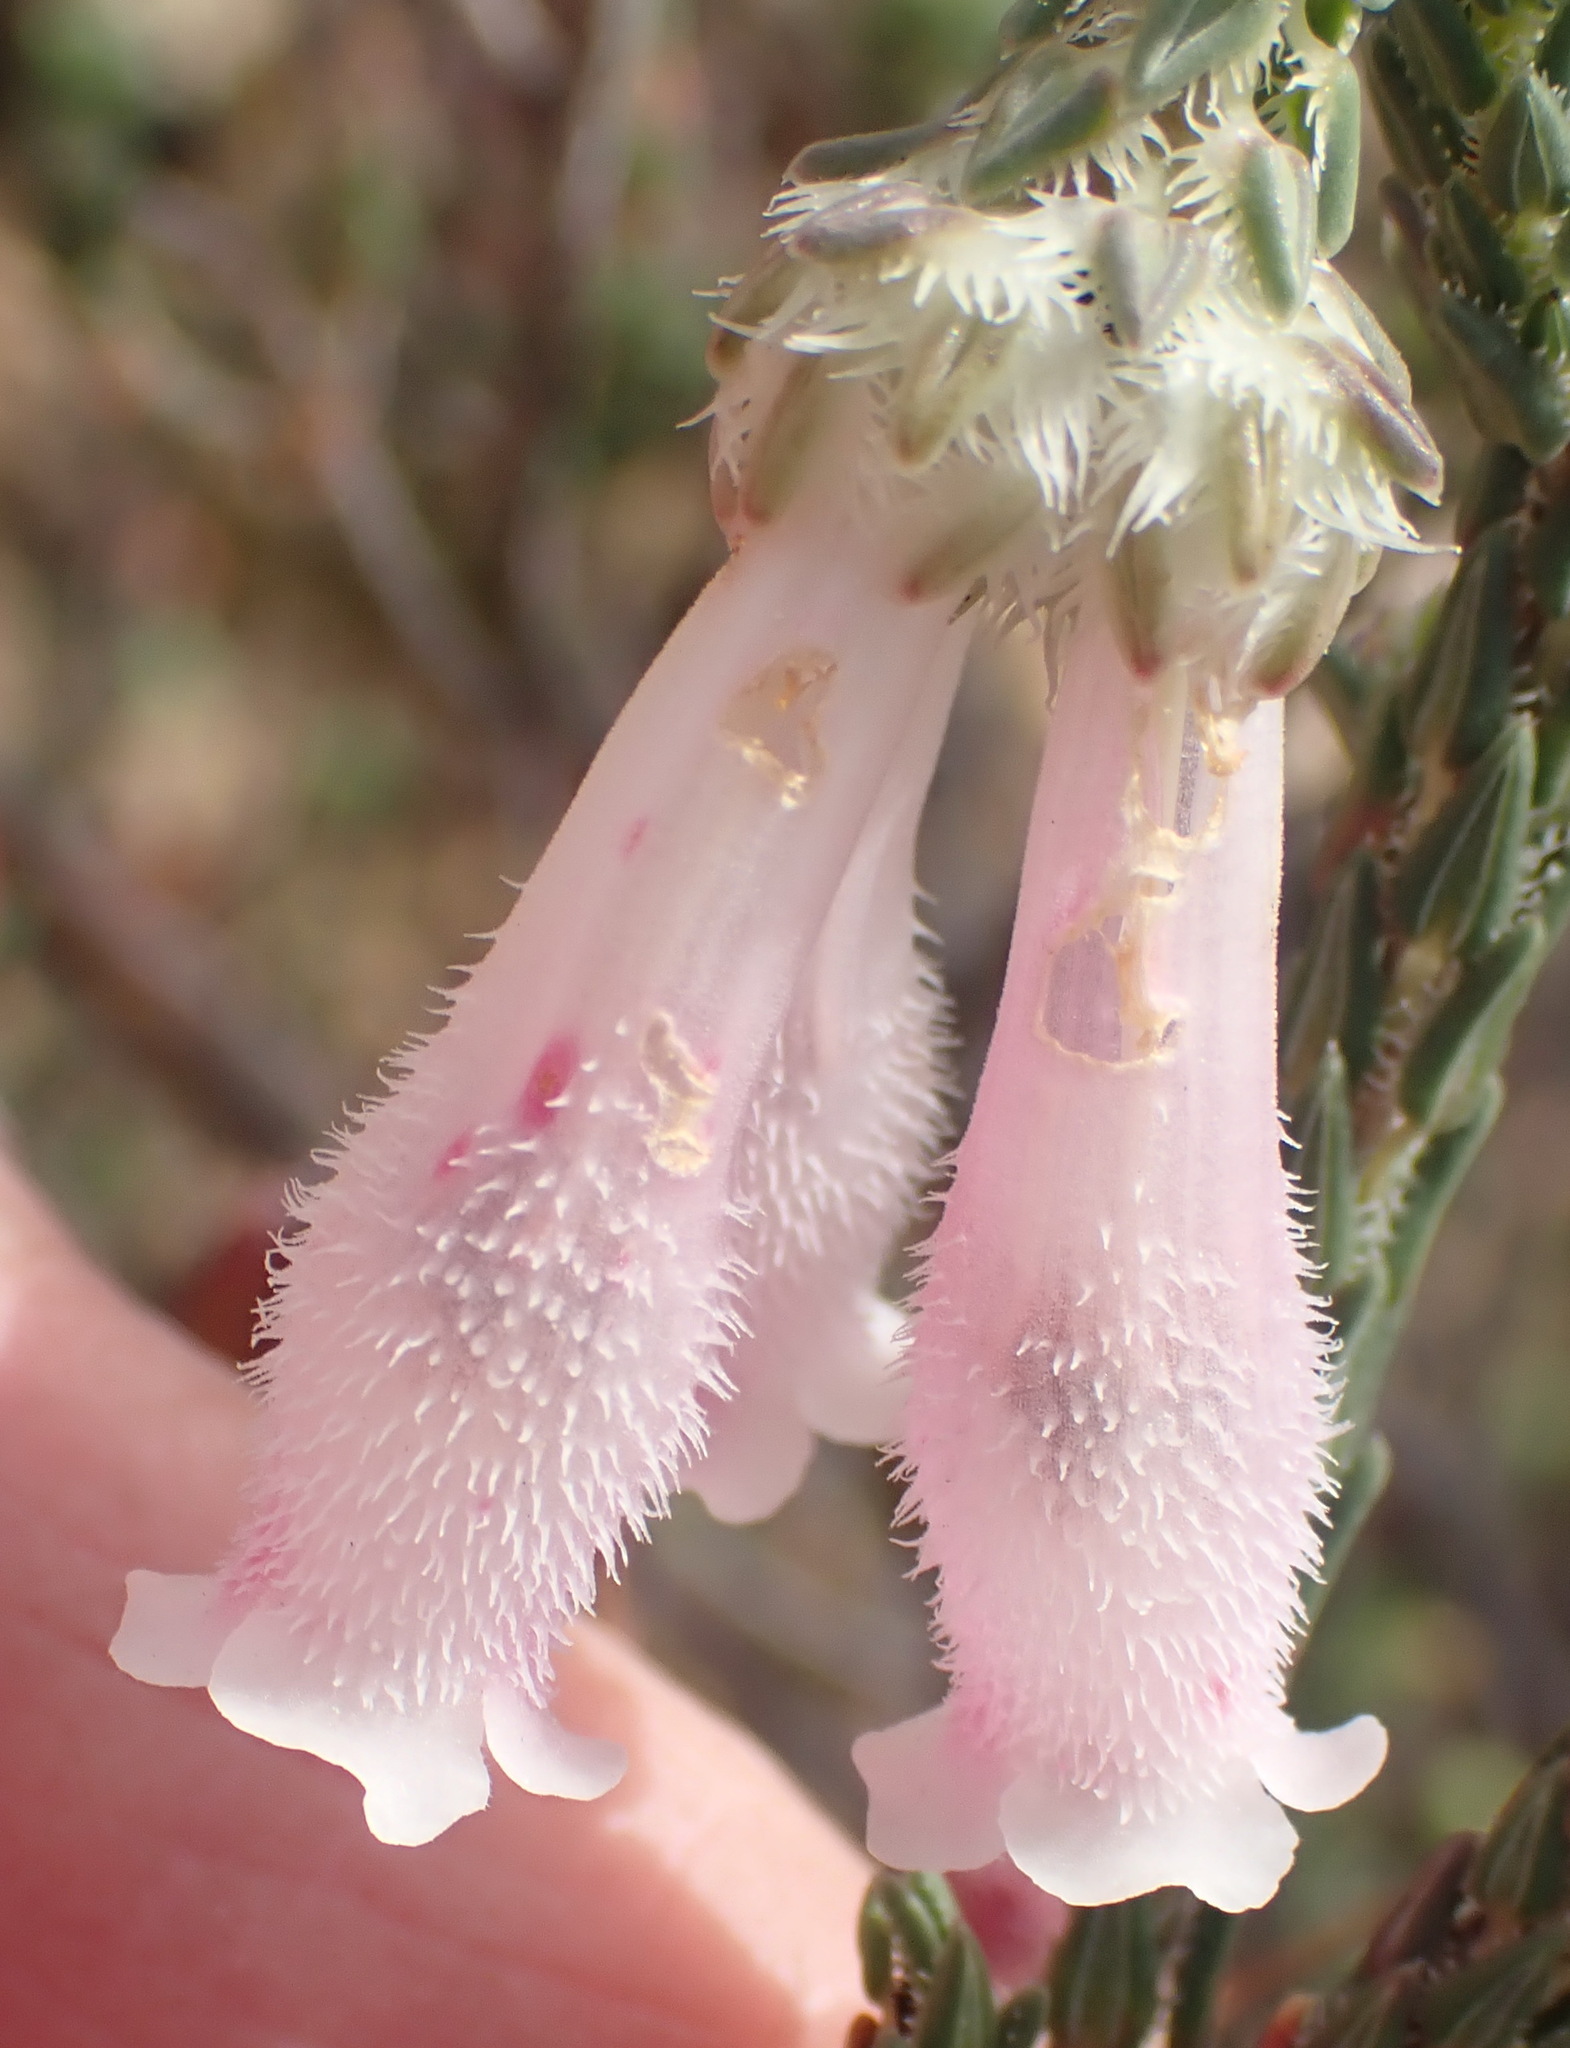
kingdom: Plantae
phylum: Tracheophyta
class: Magnoliopsida
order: Ericales
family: Ericaceae
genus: Erica
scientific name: Erica pectinifolia
